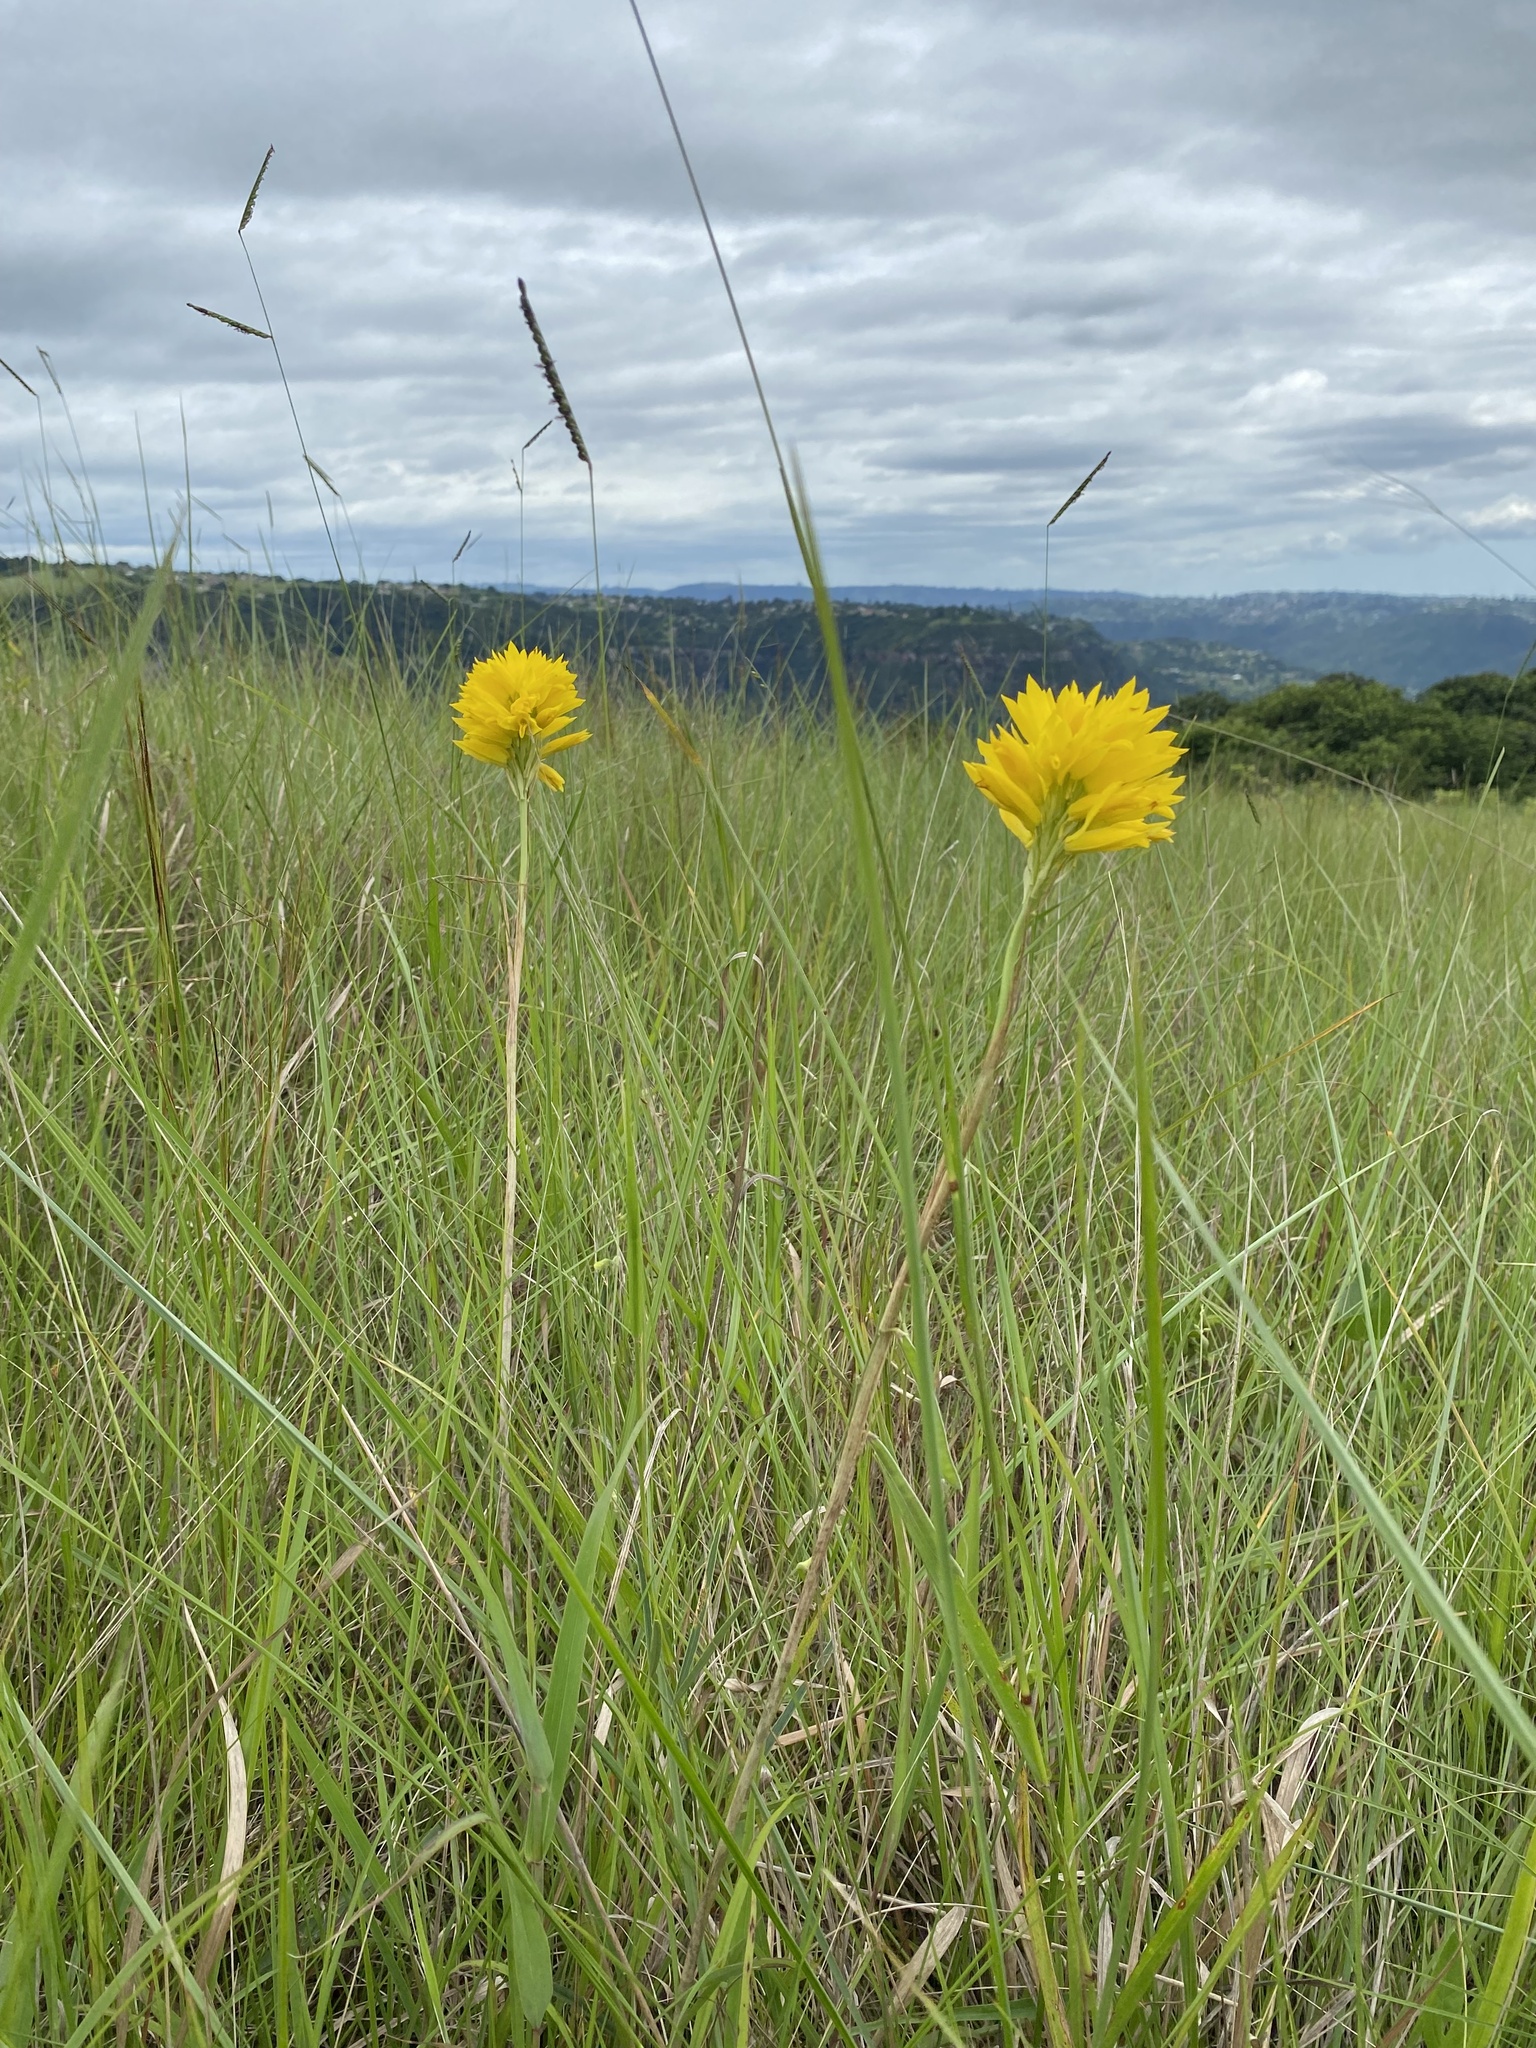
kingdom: Plantae
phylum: Tracheophyta
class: Liliopsida
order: Asparagales
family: Orchidaceae
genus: Eulophia
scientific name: Eulophia ensata
